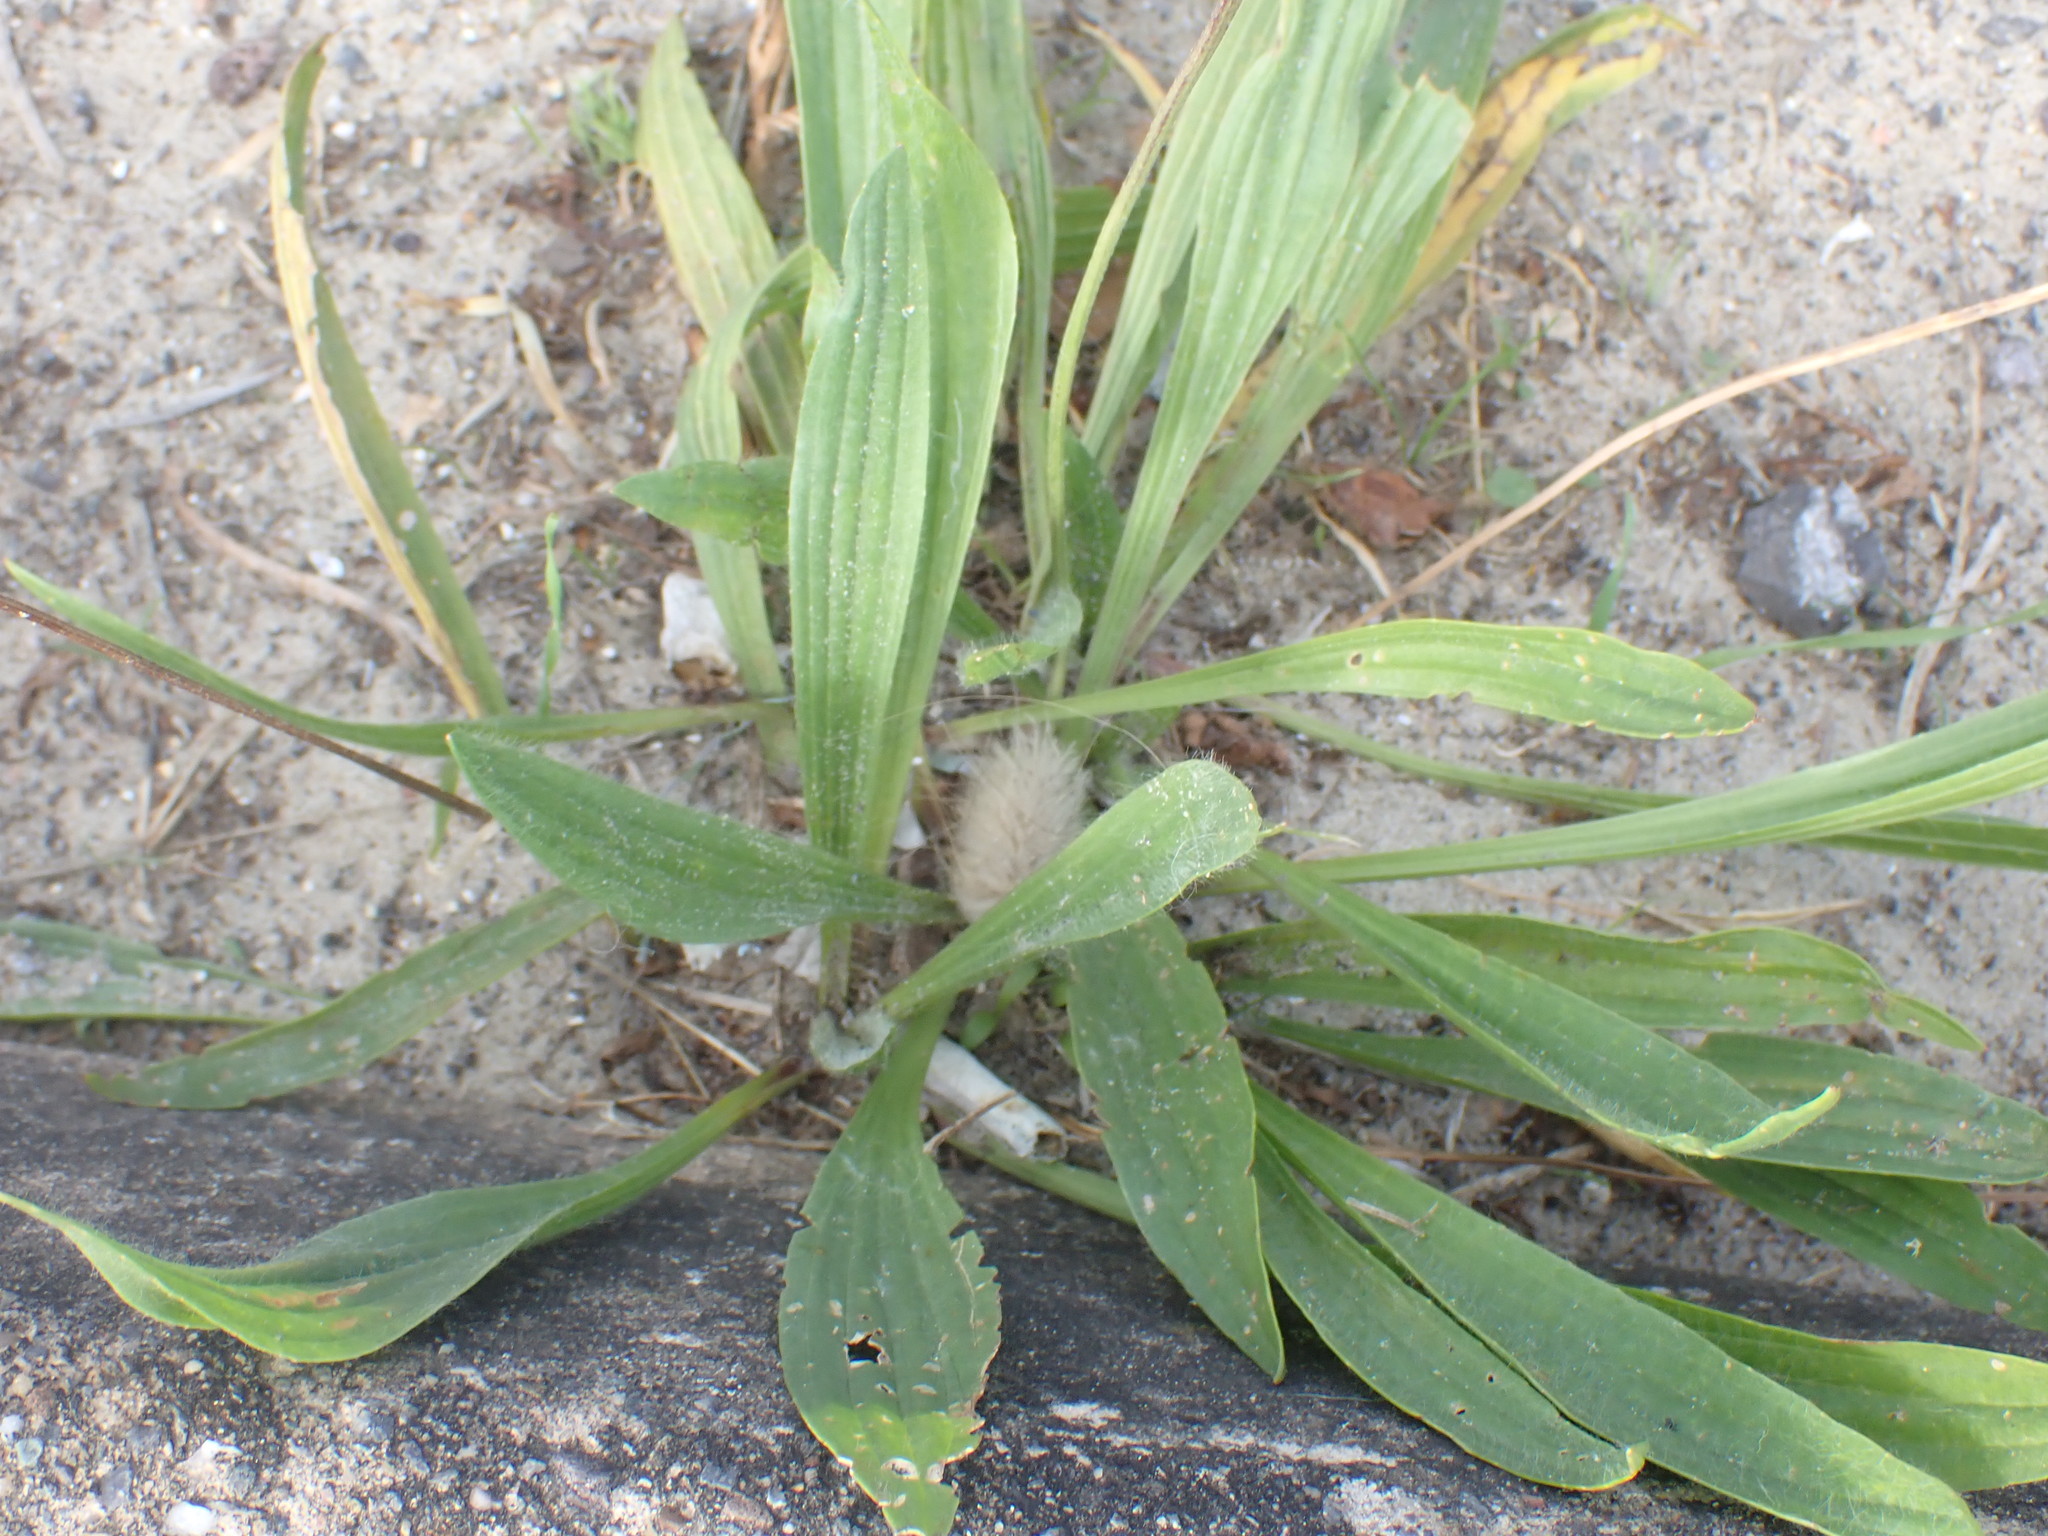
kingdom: Plantae
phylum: Tracheophyta
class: Magnoliopsida
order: Lamiales
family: Plantaginaceae
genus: Plantago
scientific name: Plantago lanceolata
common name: Ribwort plantain
